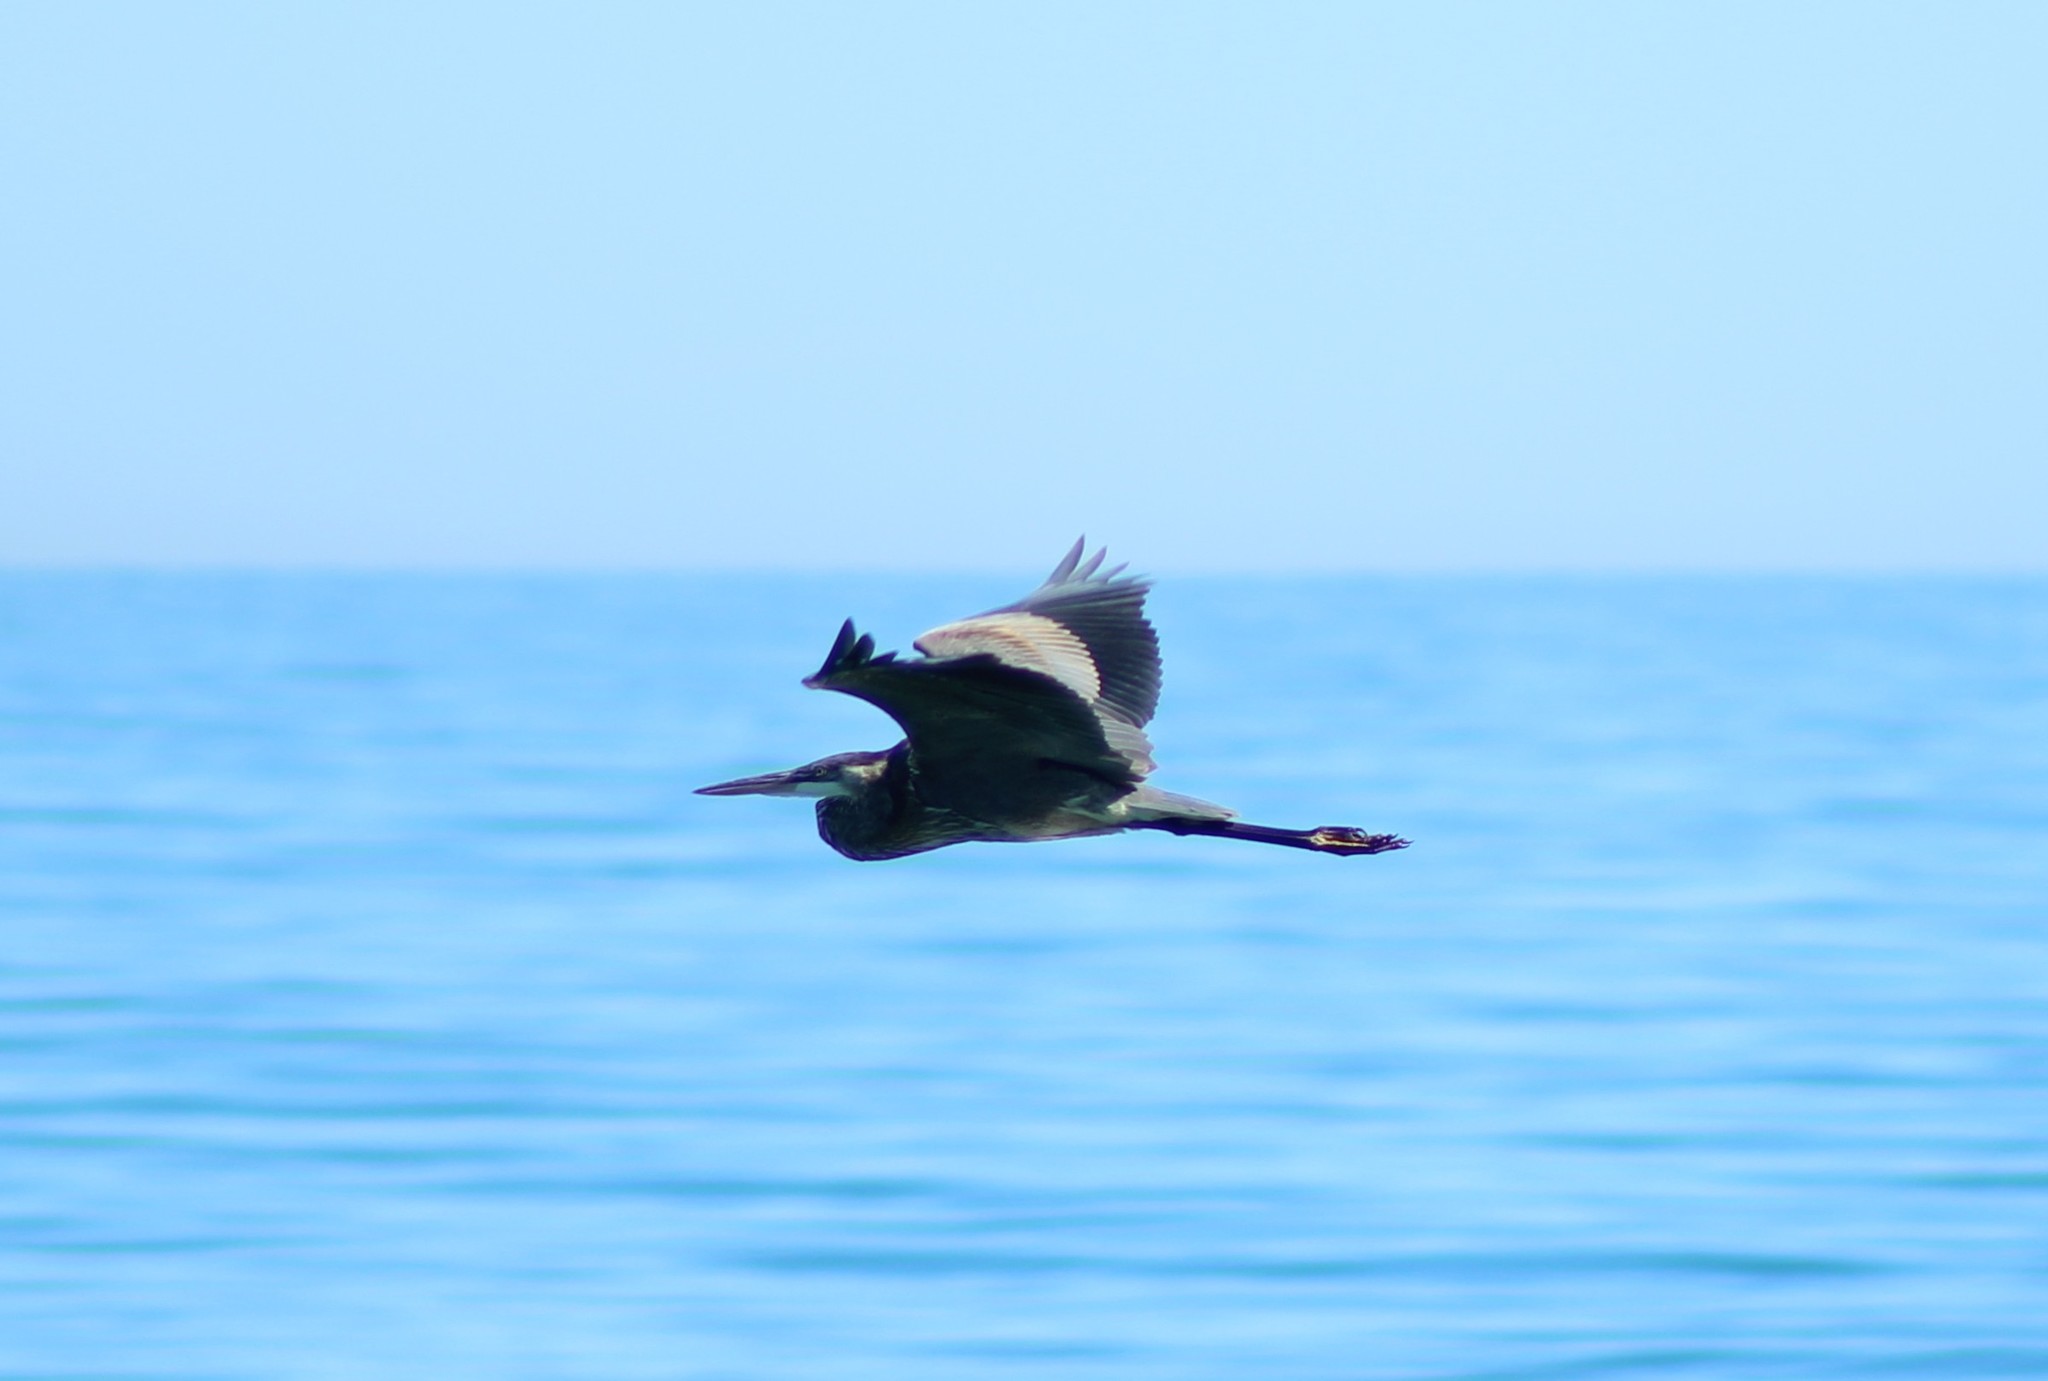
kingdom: Animalia
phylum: Chordata
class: Aves
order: Pelecaniformes
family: Ardeidae
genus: Ardea
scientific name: Ardea herodias
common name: Great blue heron
